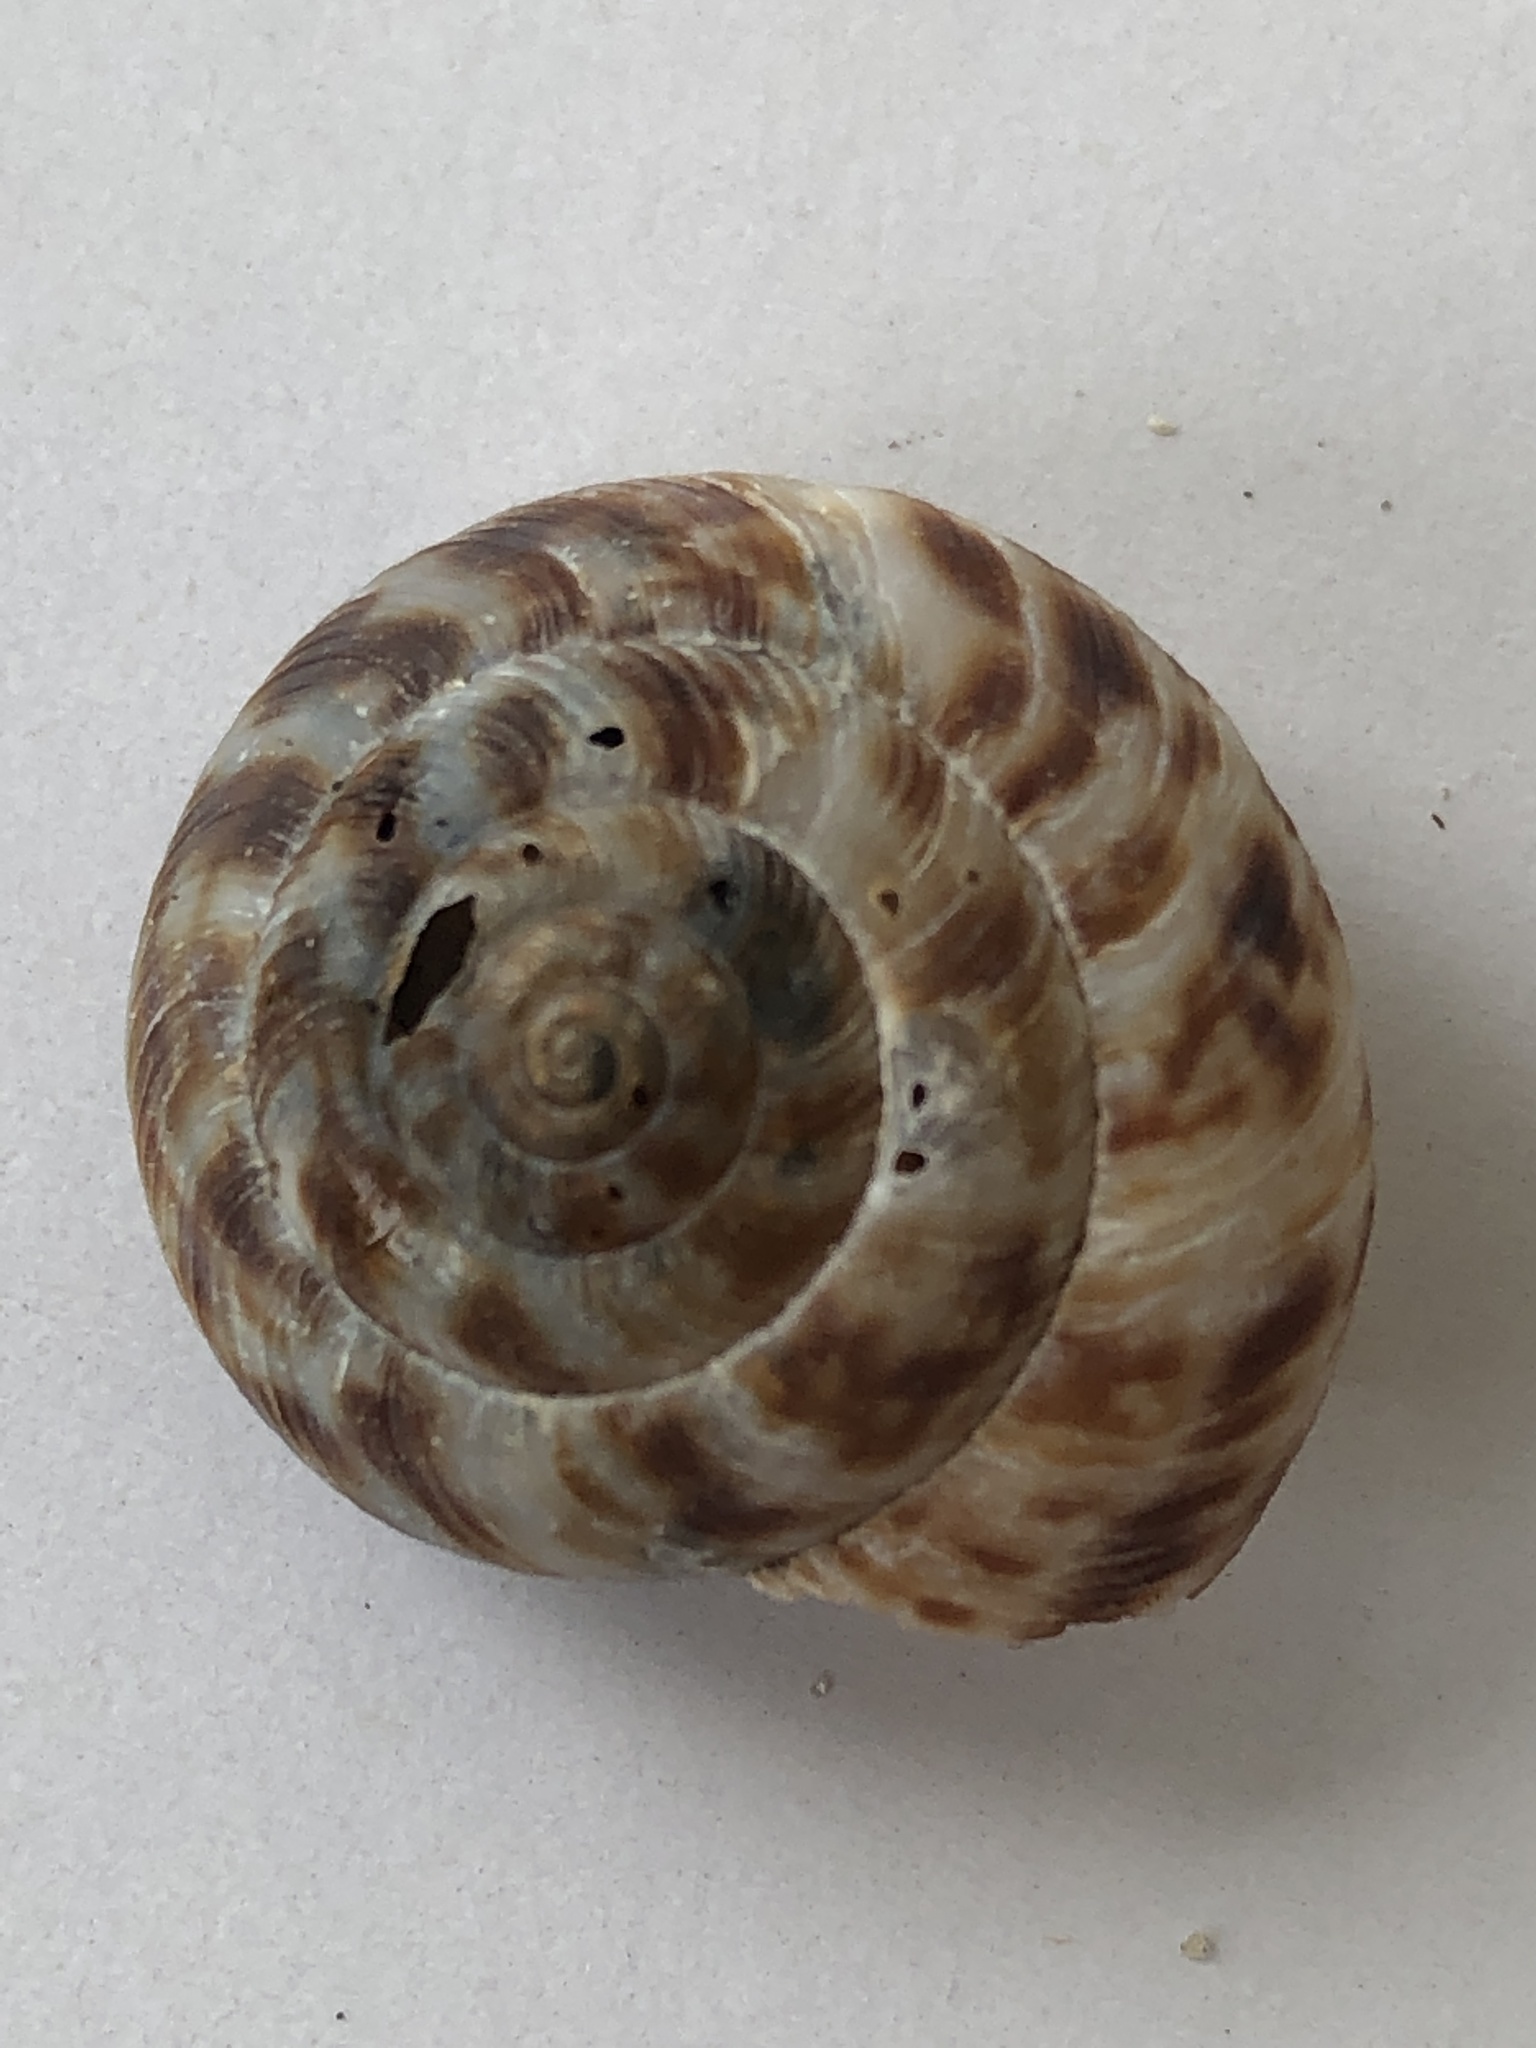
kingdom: Animalia
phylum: Mollusca
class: Gastropoda
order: Stylommatophora
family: Discidae
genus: Anguispira
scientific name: Anguispira alternata
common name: Flamed tigersnail
